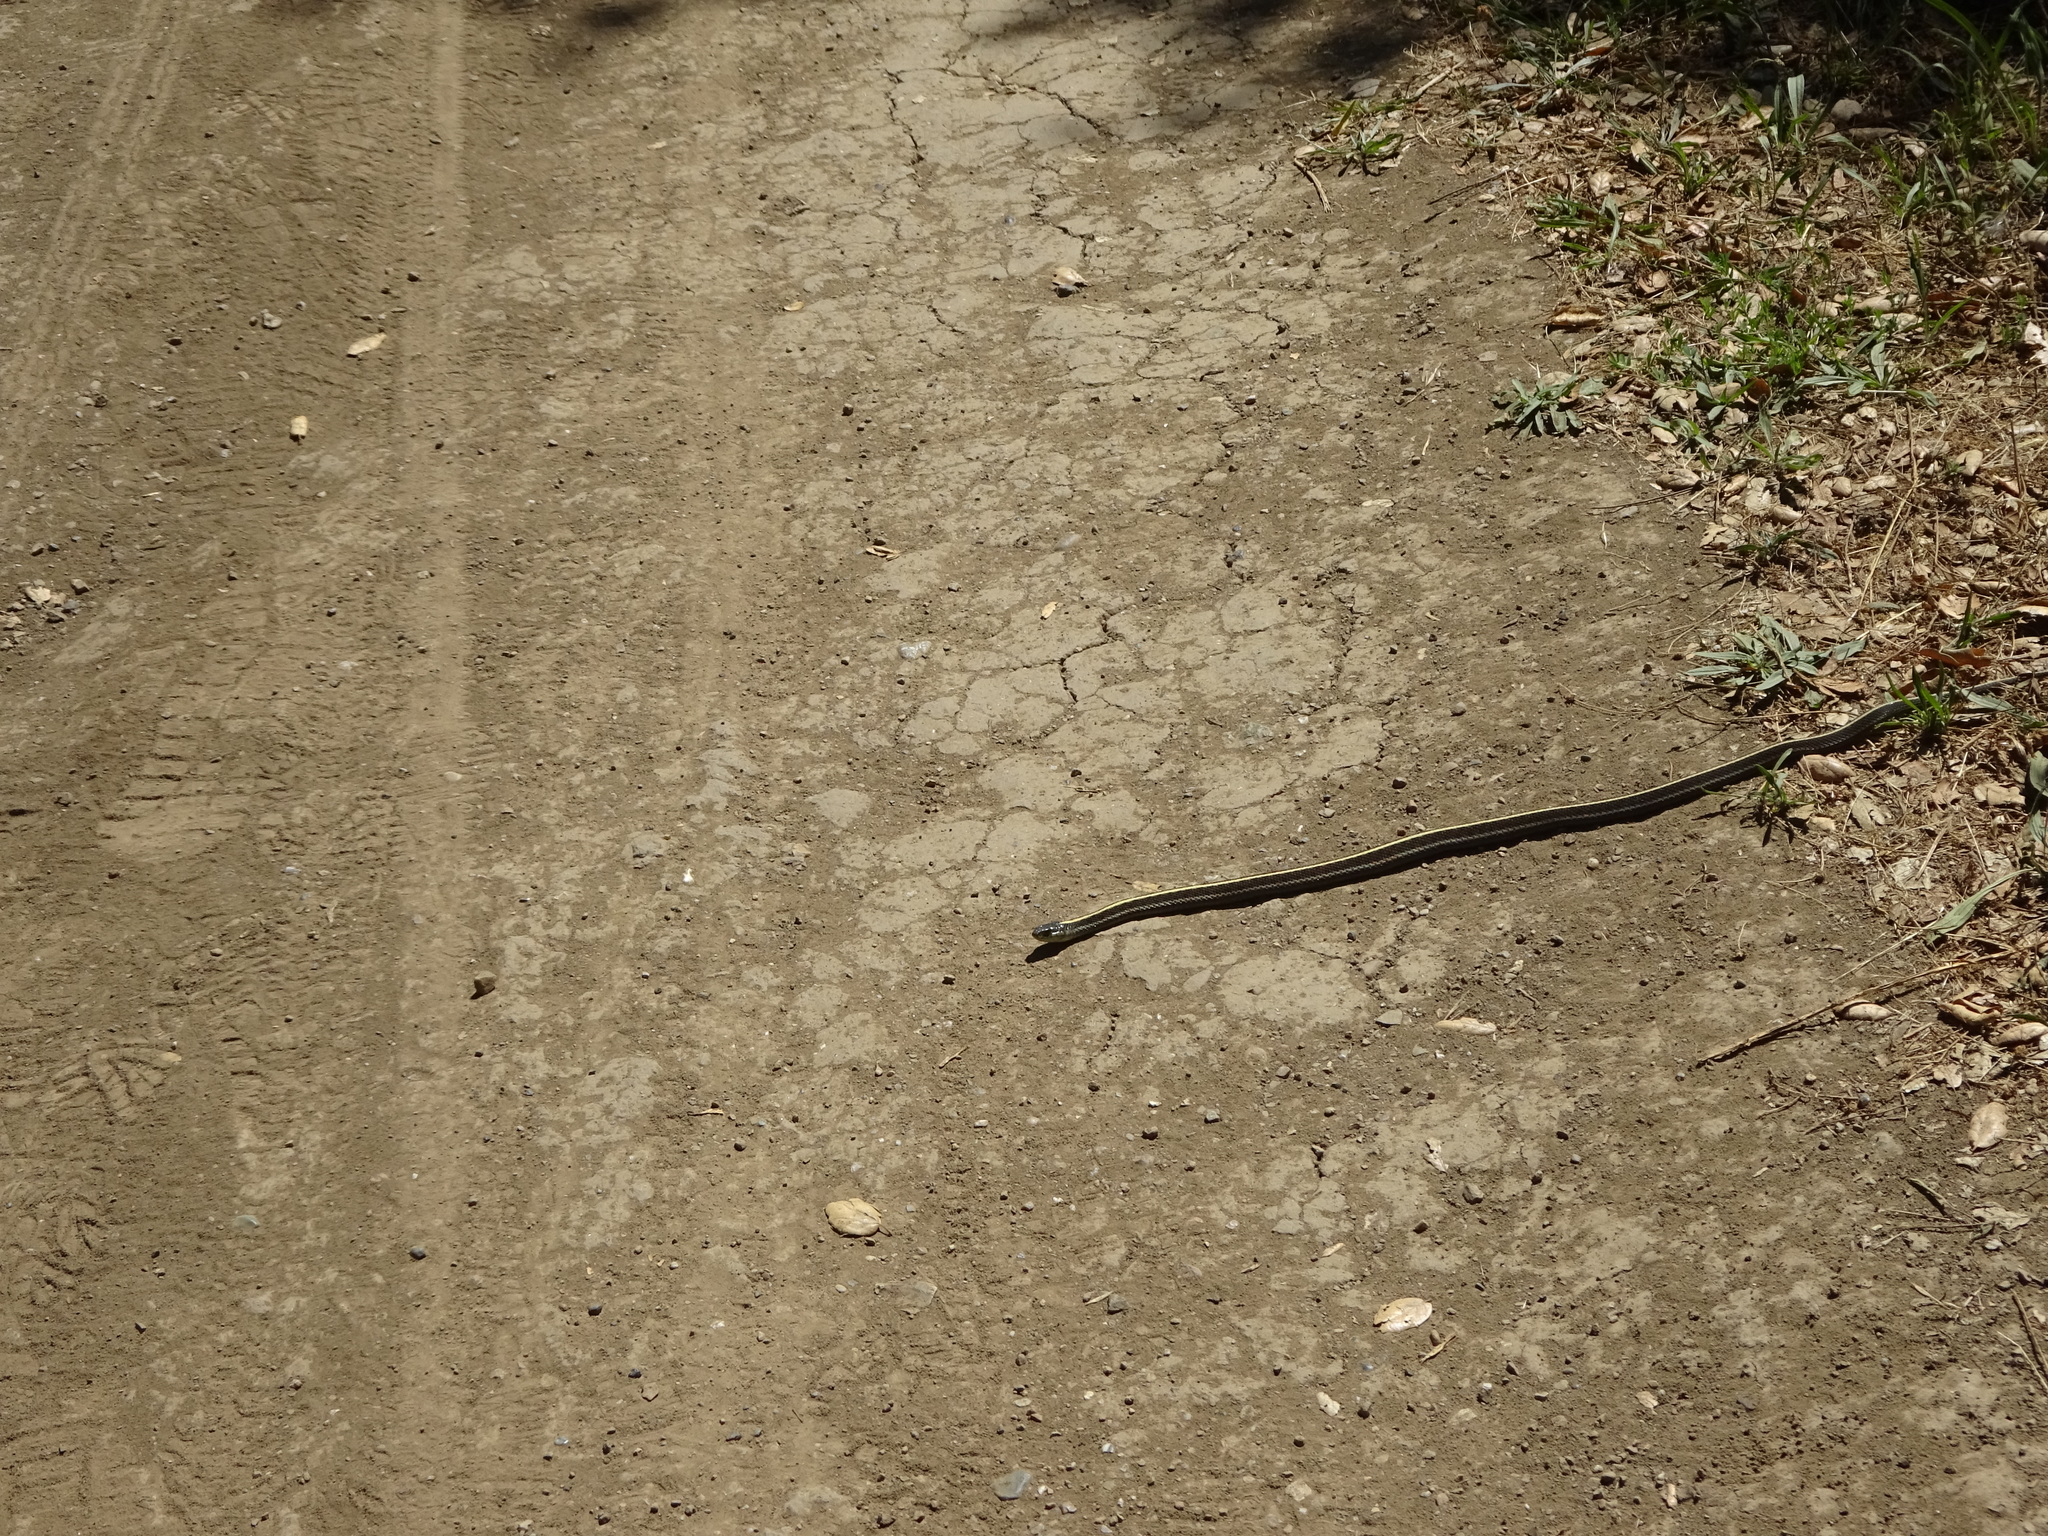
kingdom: Animalia
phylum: Chordata
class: Squamata
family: Colubridae
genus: Thamnophis
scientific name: Thamnophis elegans
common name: Western terrestrial garter snake
